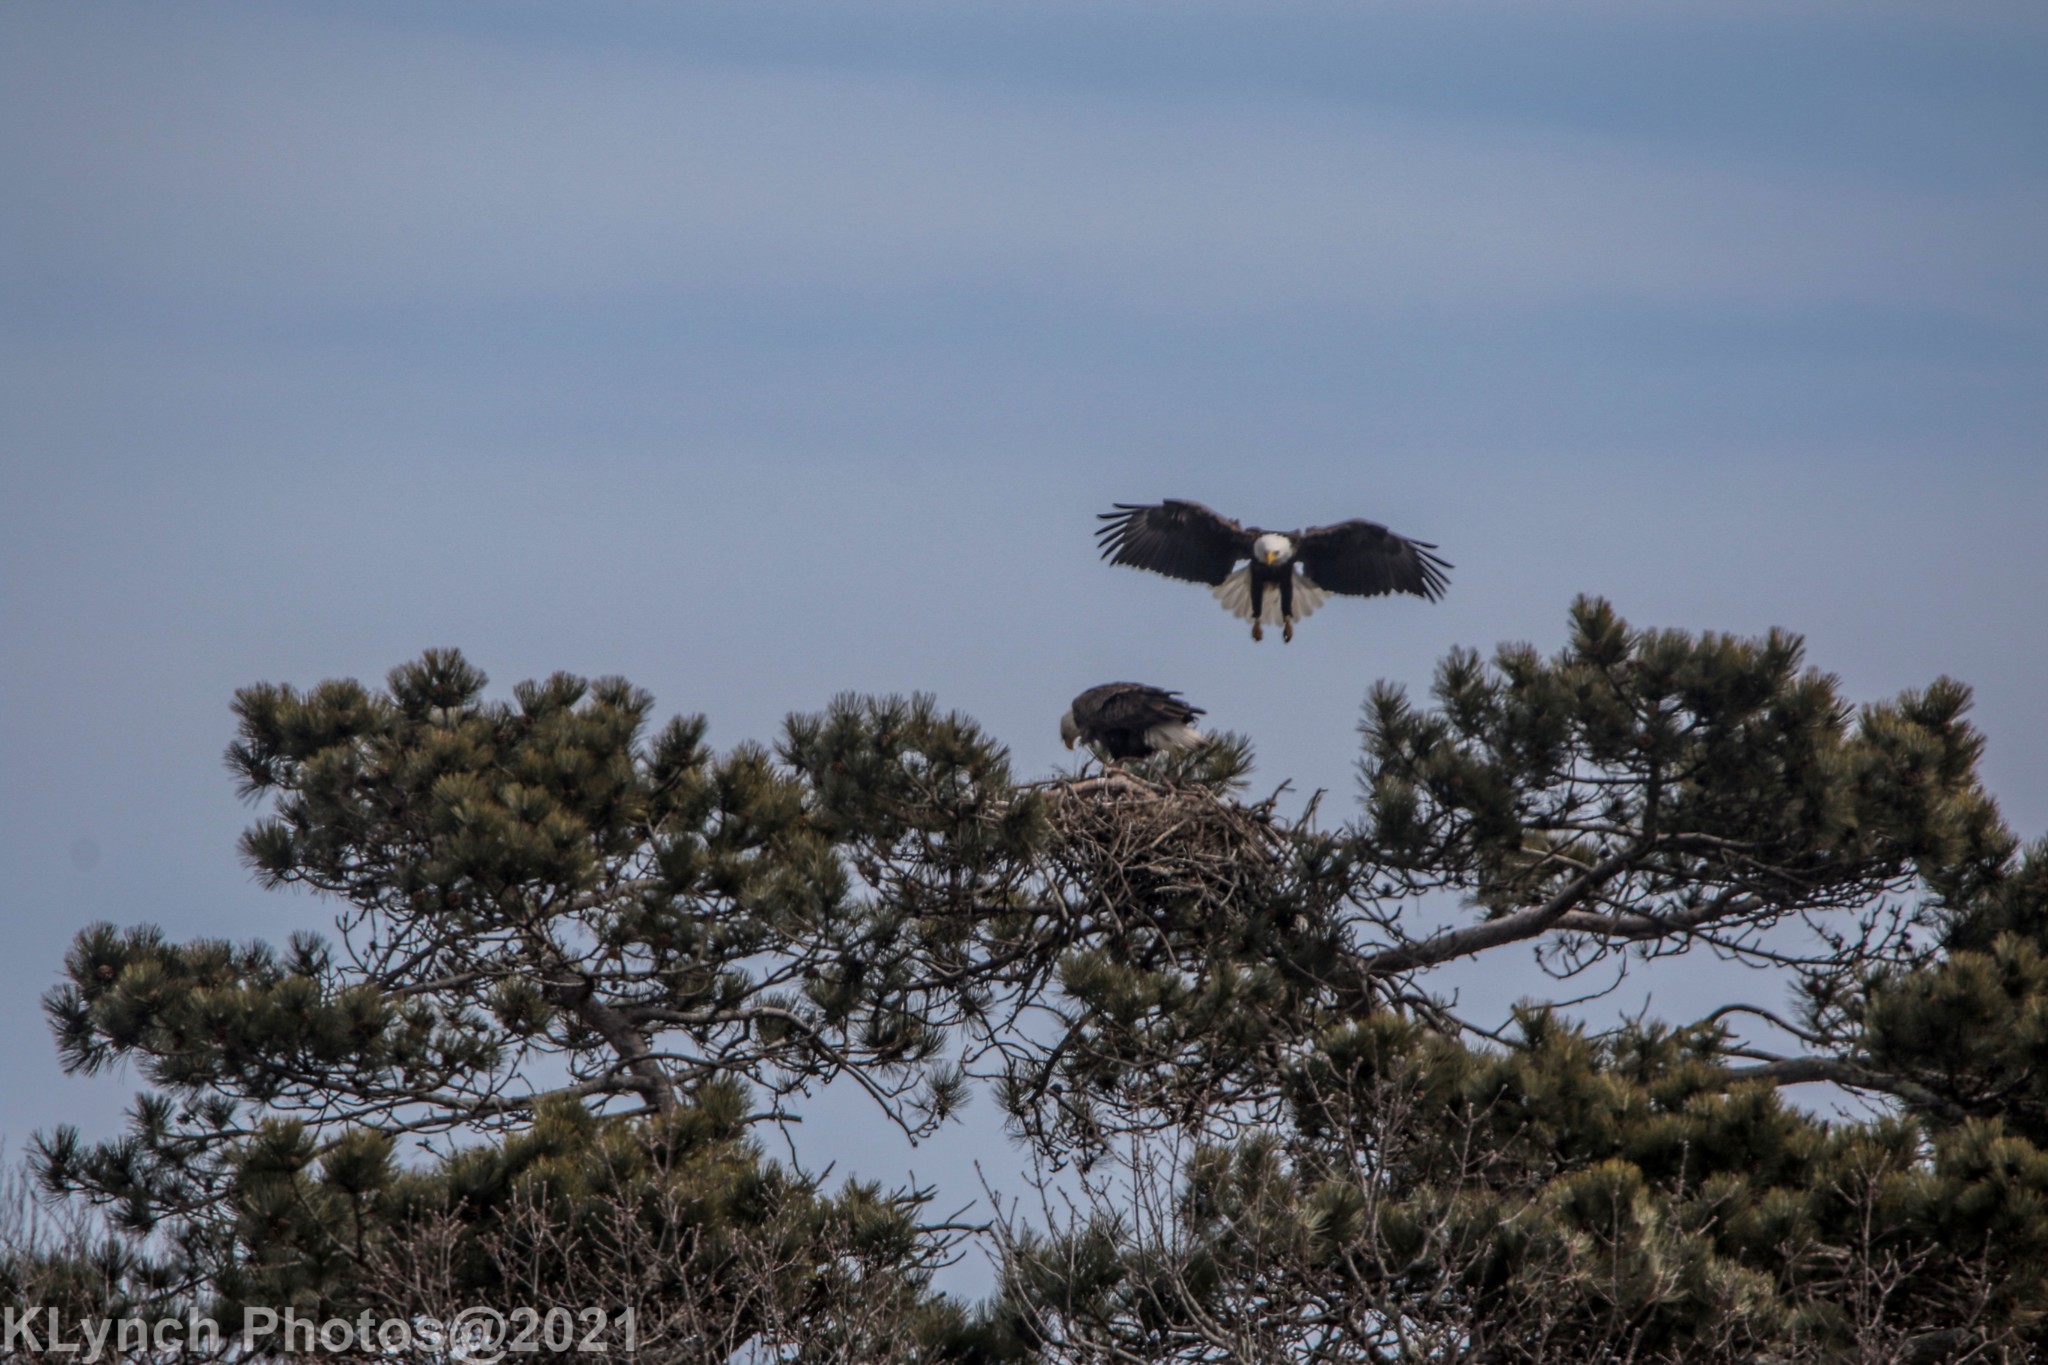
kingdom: Animalia
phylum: Chordata
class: Aves
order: Accipitriformes
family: Accipitridae
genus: Haliaeetus
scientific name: Haliaeetus leucocephalus
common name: Bald eagle
